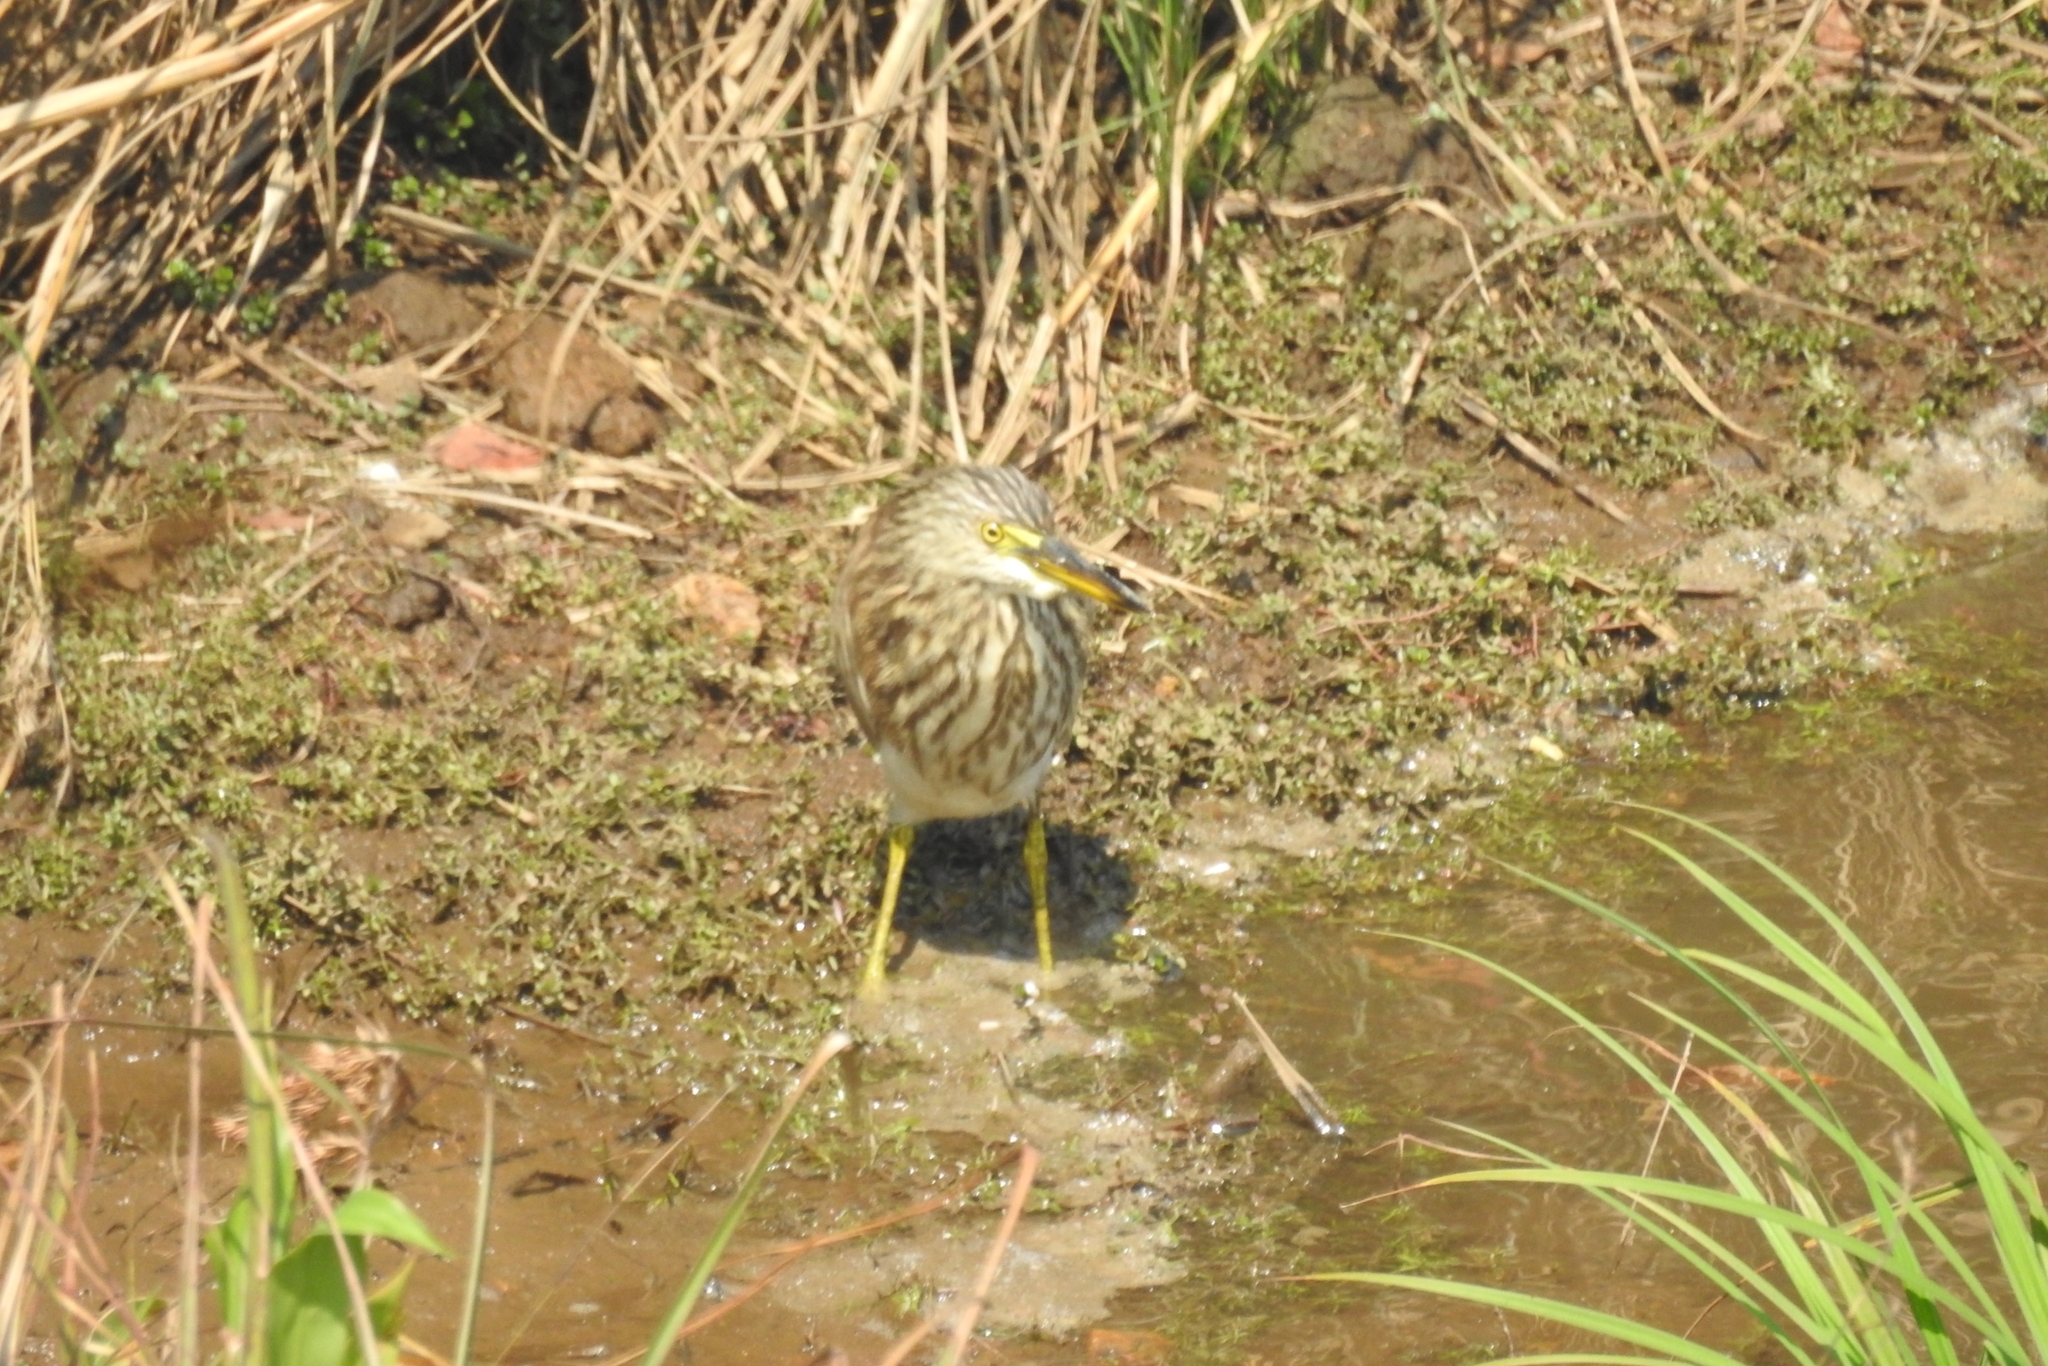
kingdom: Animalia
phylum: Chordata
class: Aves
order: Pelecaniformes
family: Ardeidae
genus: Ardeola
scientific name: Ardeola grayii
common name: Indian pond heron
